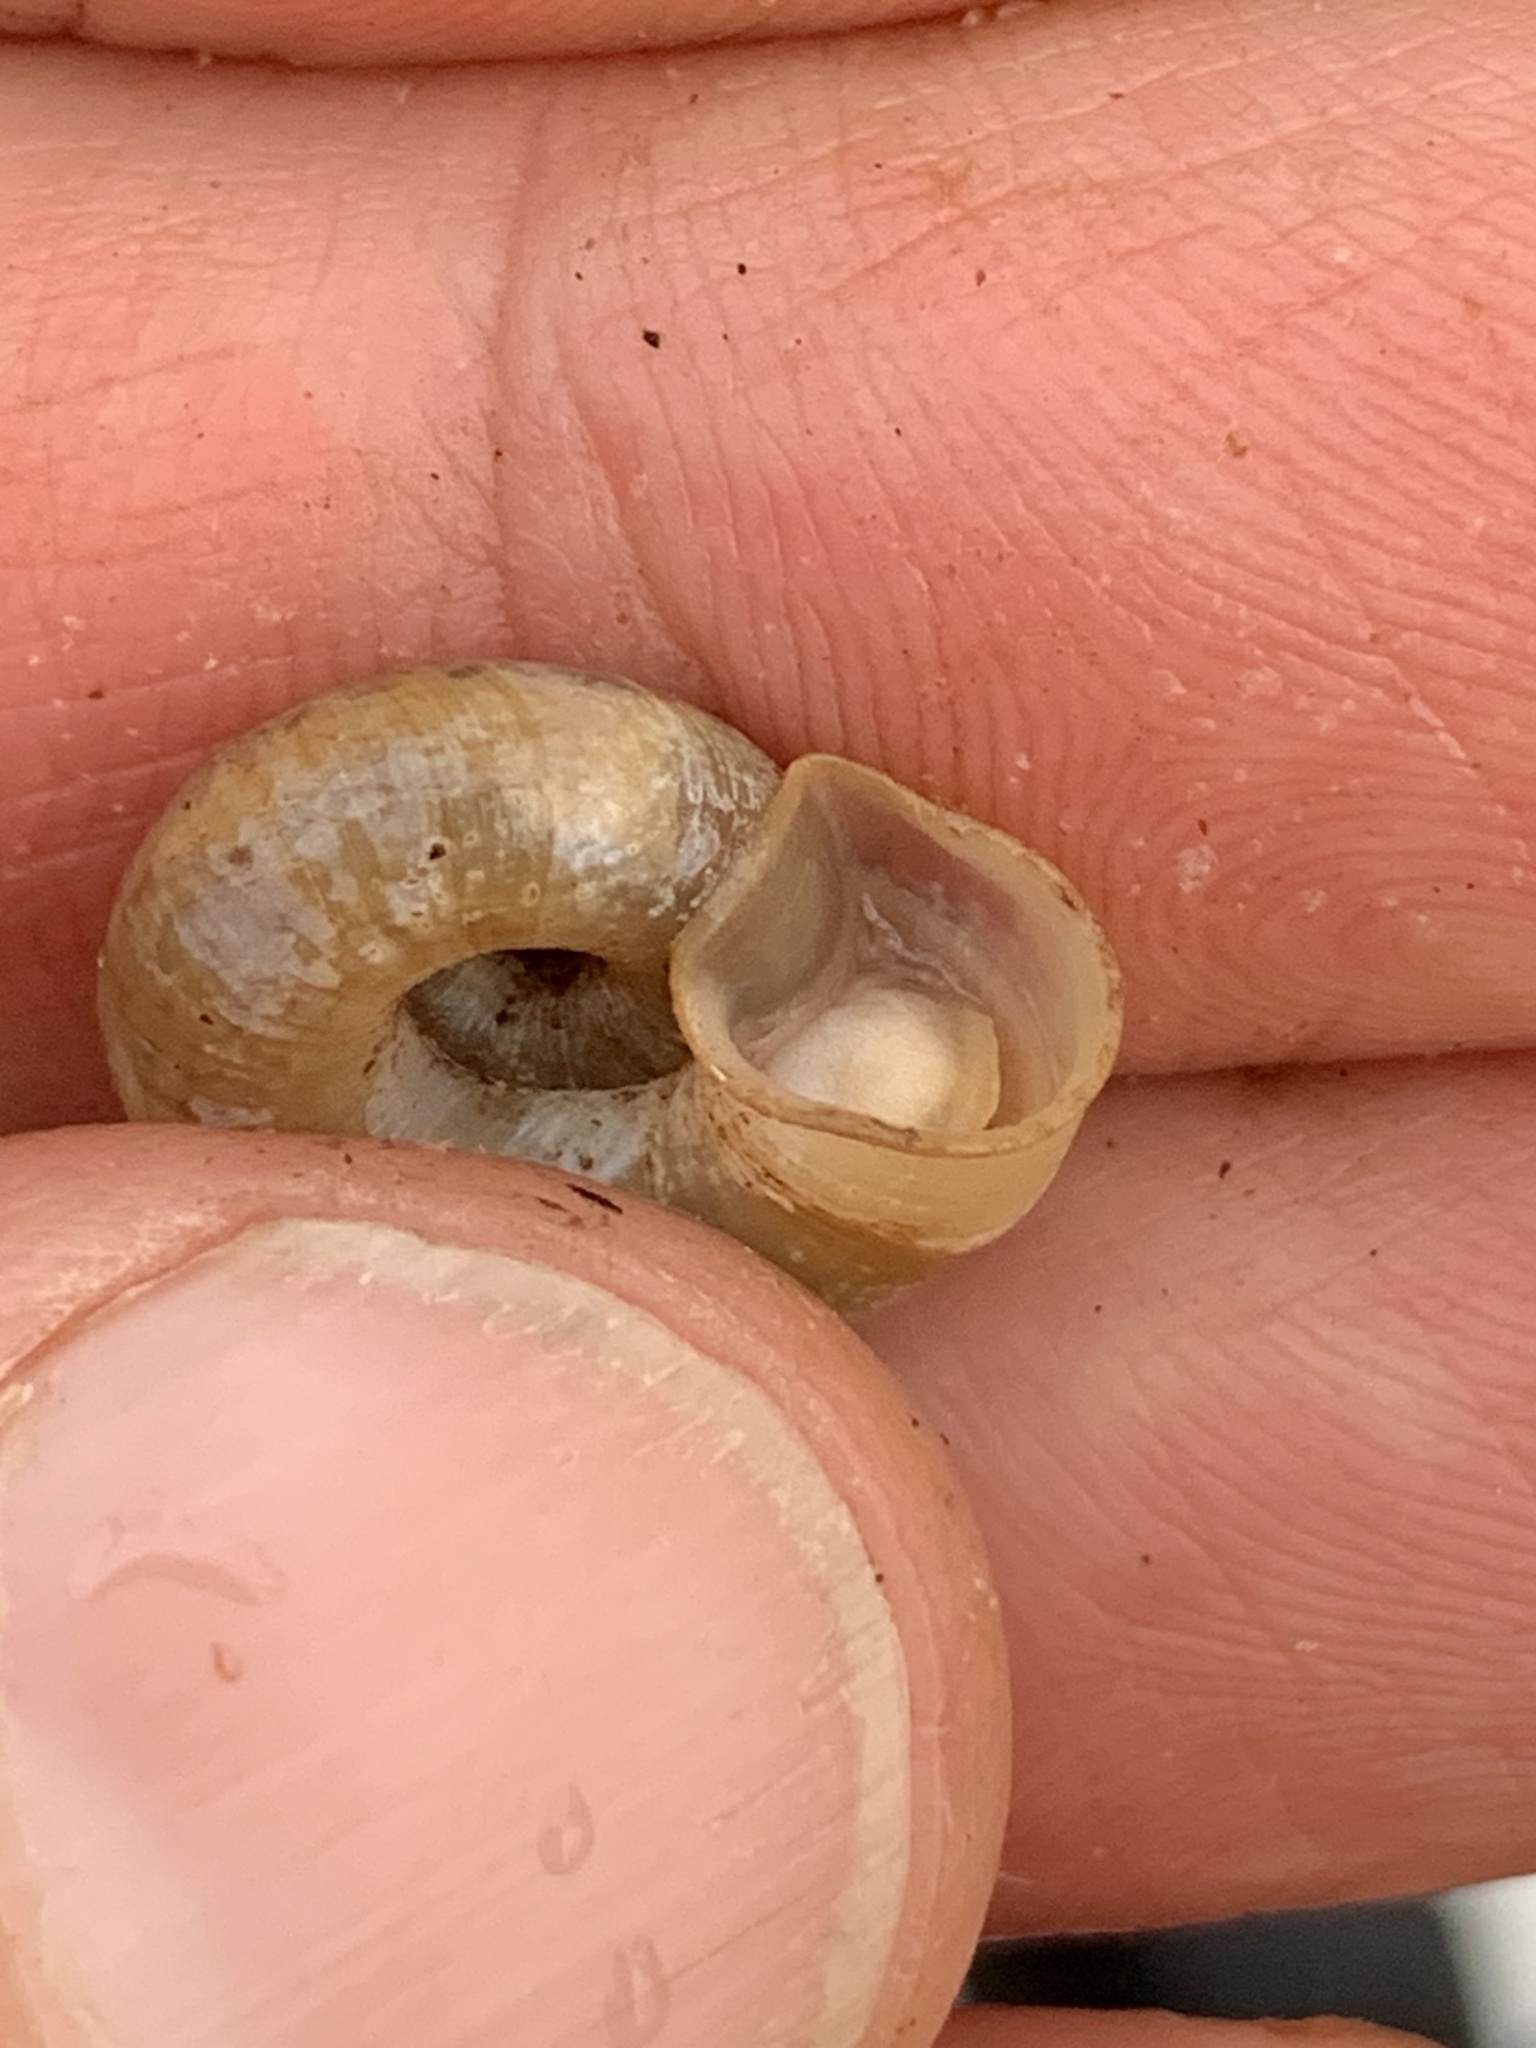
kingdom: Animalia
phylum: Mollusca
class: Gastropoda
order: Stylommatophora
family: Haplotrematidae
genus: Haplotrema
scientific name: Haplotrema concavum
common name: Gray-foot lancetooth
